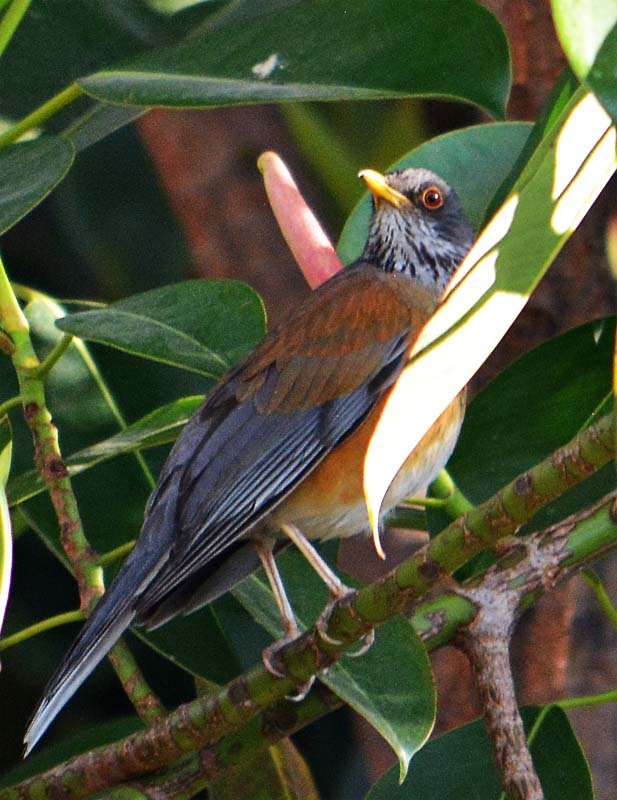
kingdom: Animalia
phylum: Chordata
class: Aves
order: Passeriformes
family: Turdidae
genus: Turdus
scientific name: Turdus rufopalliatus
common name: Rufous-backed robin
